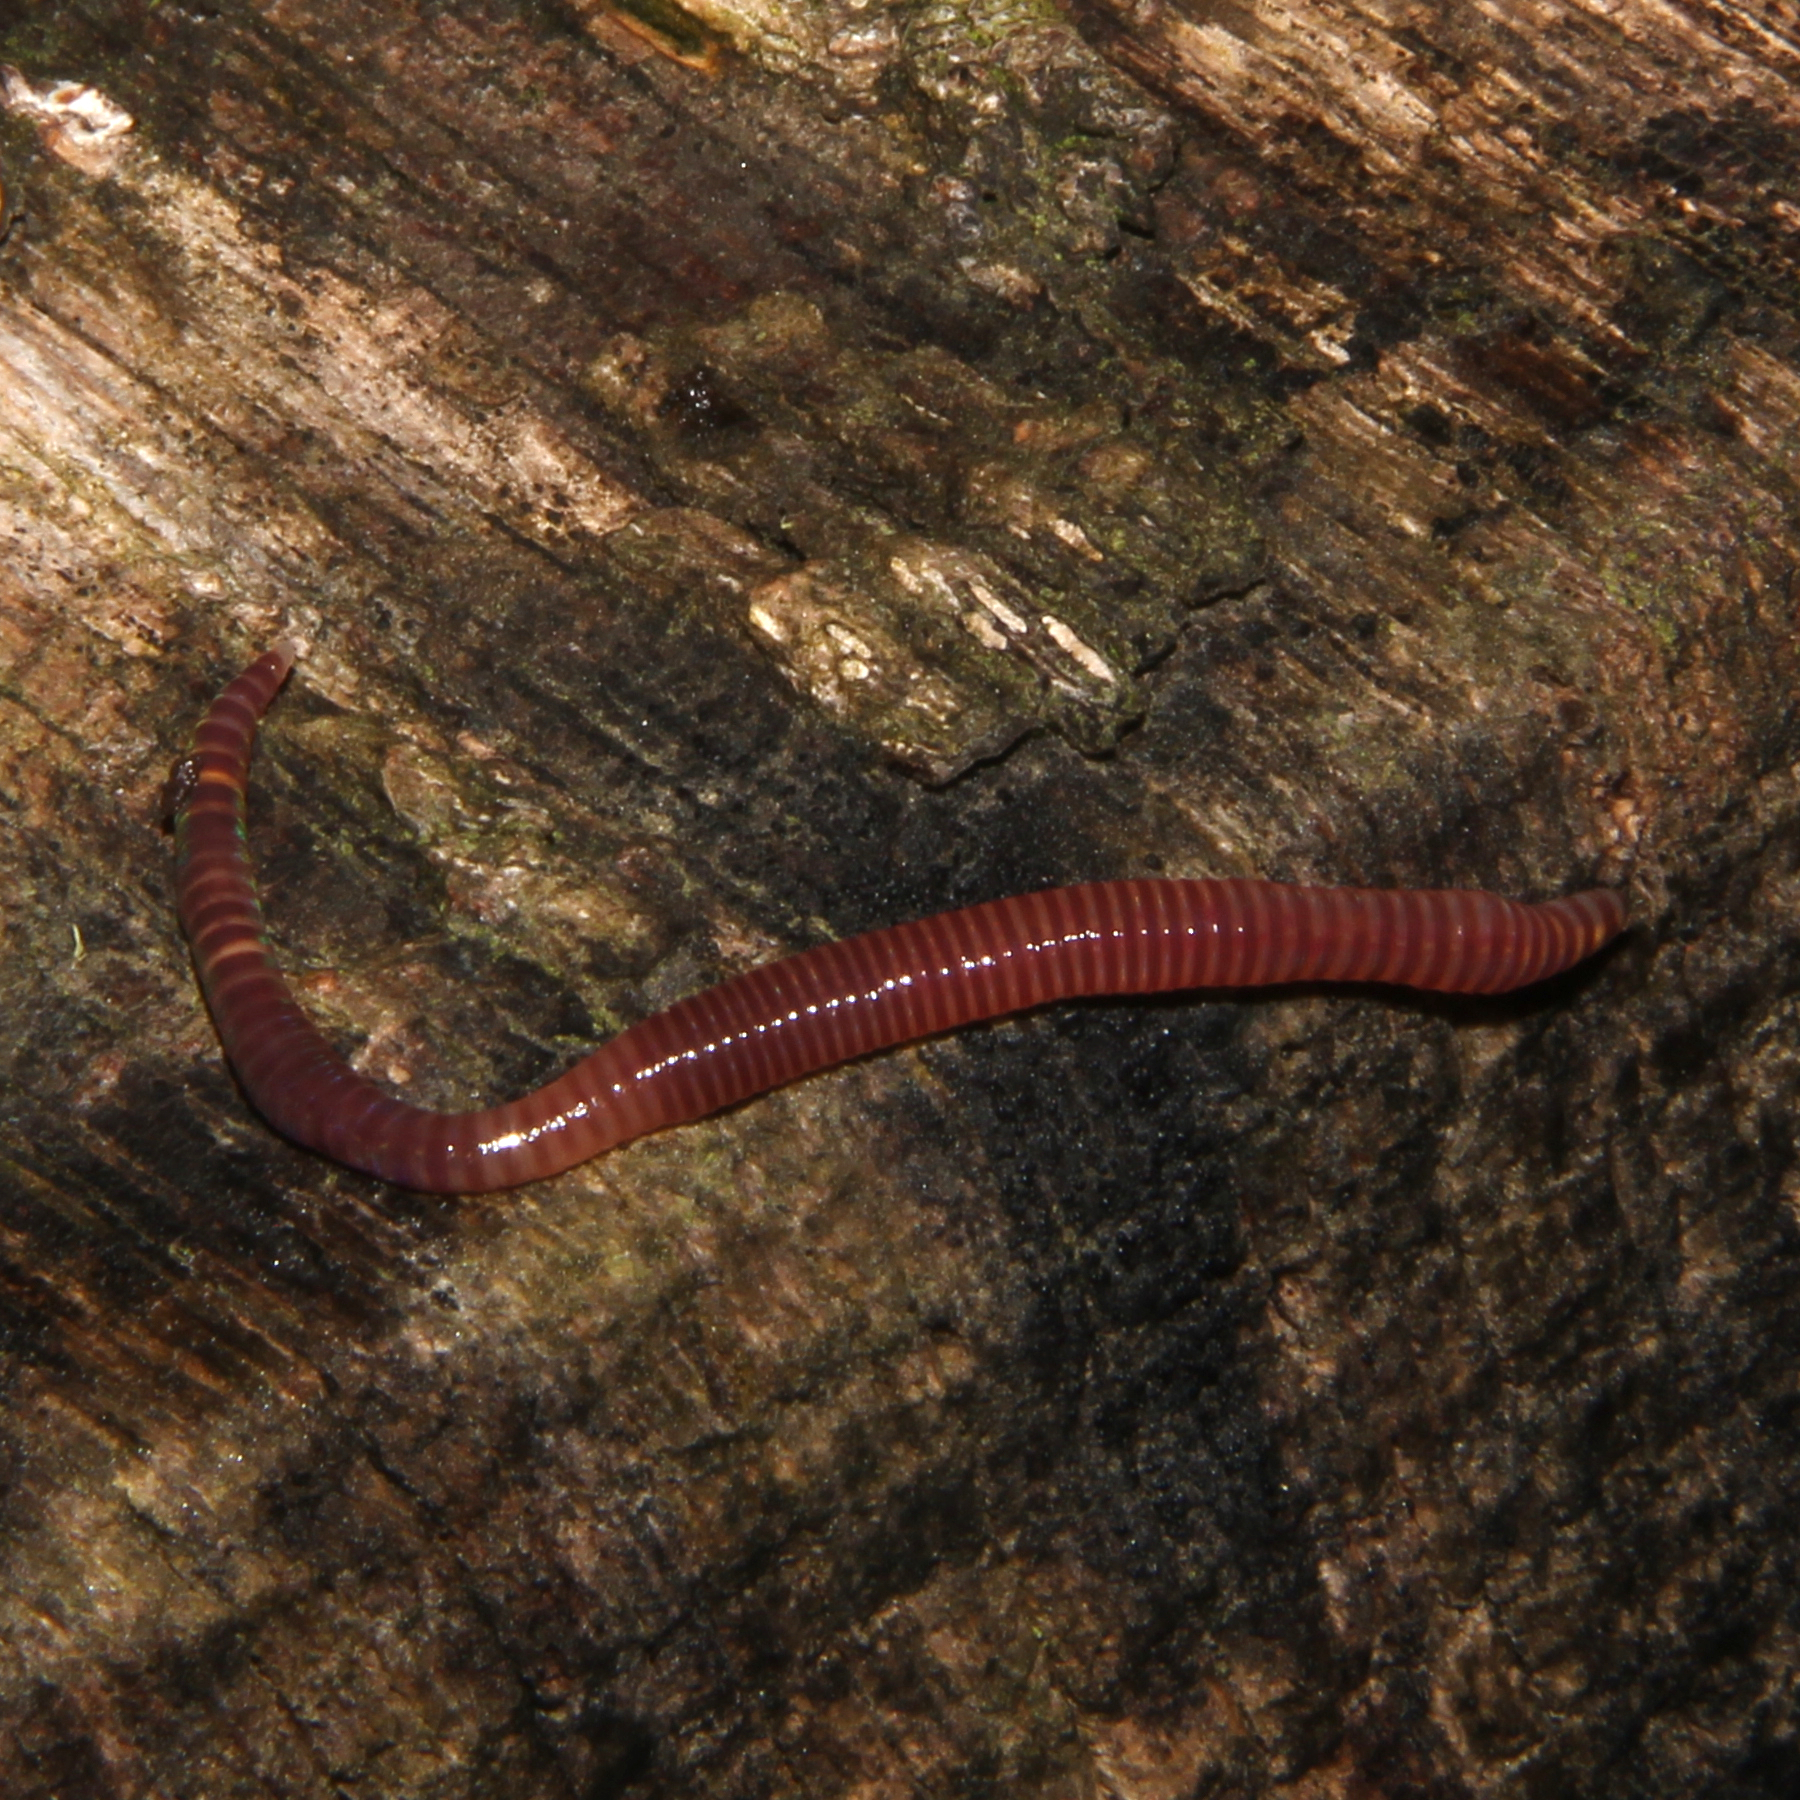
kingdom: Animalia
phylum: Annelida
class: Clitellata
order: Crassiclitellata
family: Lumbricidae
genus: Eisenia
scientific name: Eisenia fetida
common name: Red wiggler
